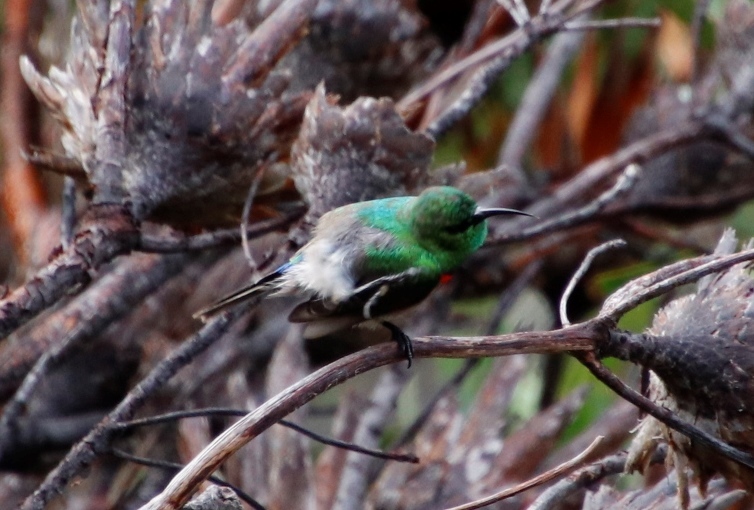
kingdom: Animalia
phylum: Chordata
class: Aves
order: Passeriformes
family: Nectariniidae
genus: Cinnyris
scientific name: Cinnyris chalybeus
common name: Southern double-collared sunbird
